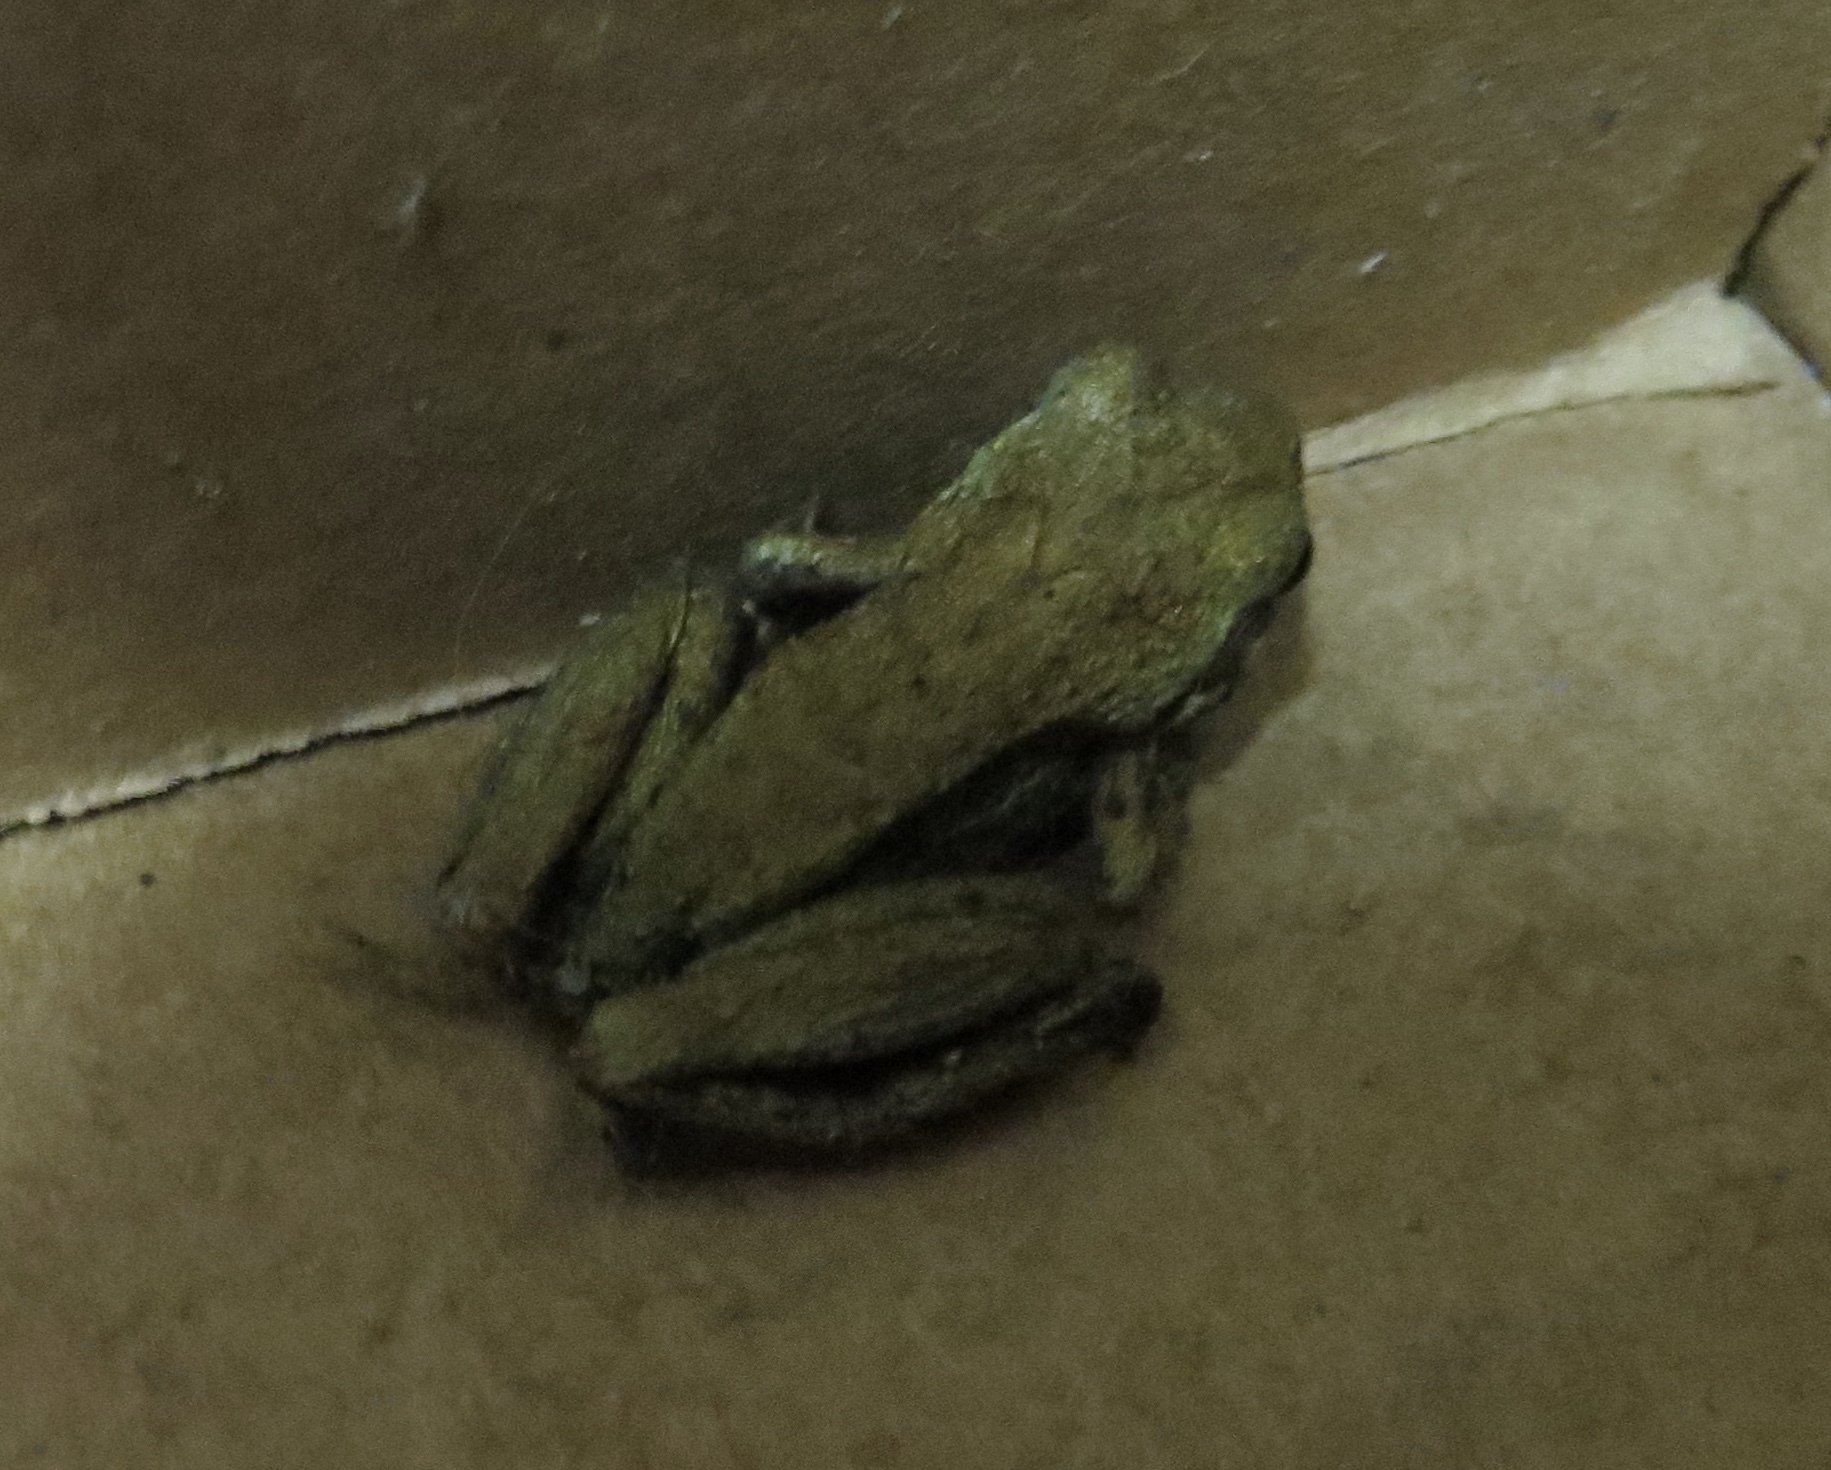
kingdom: Animalia
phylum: Chordata
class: Amphibia
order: Anura
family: Hylidae
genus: Pseudacris
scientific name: Pseudacris regilla
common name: Pacific chorus frog
